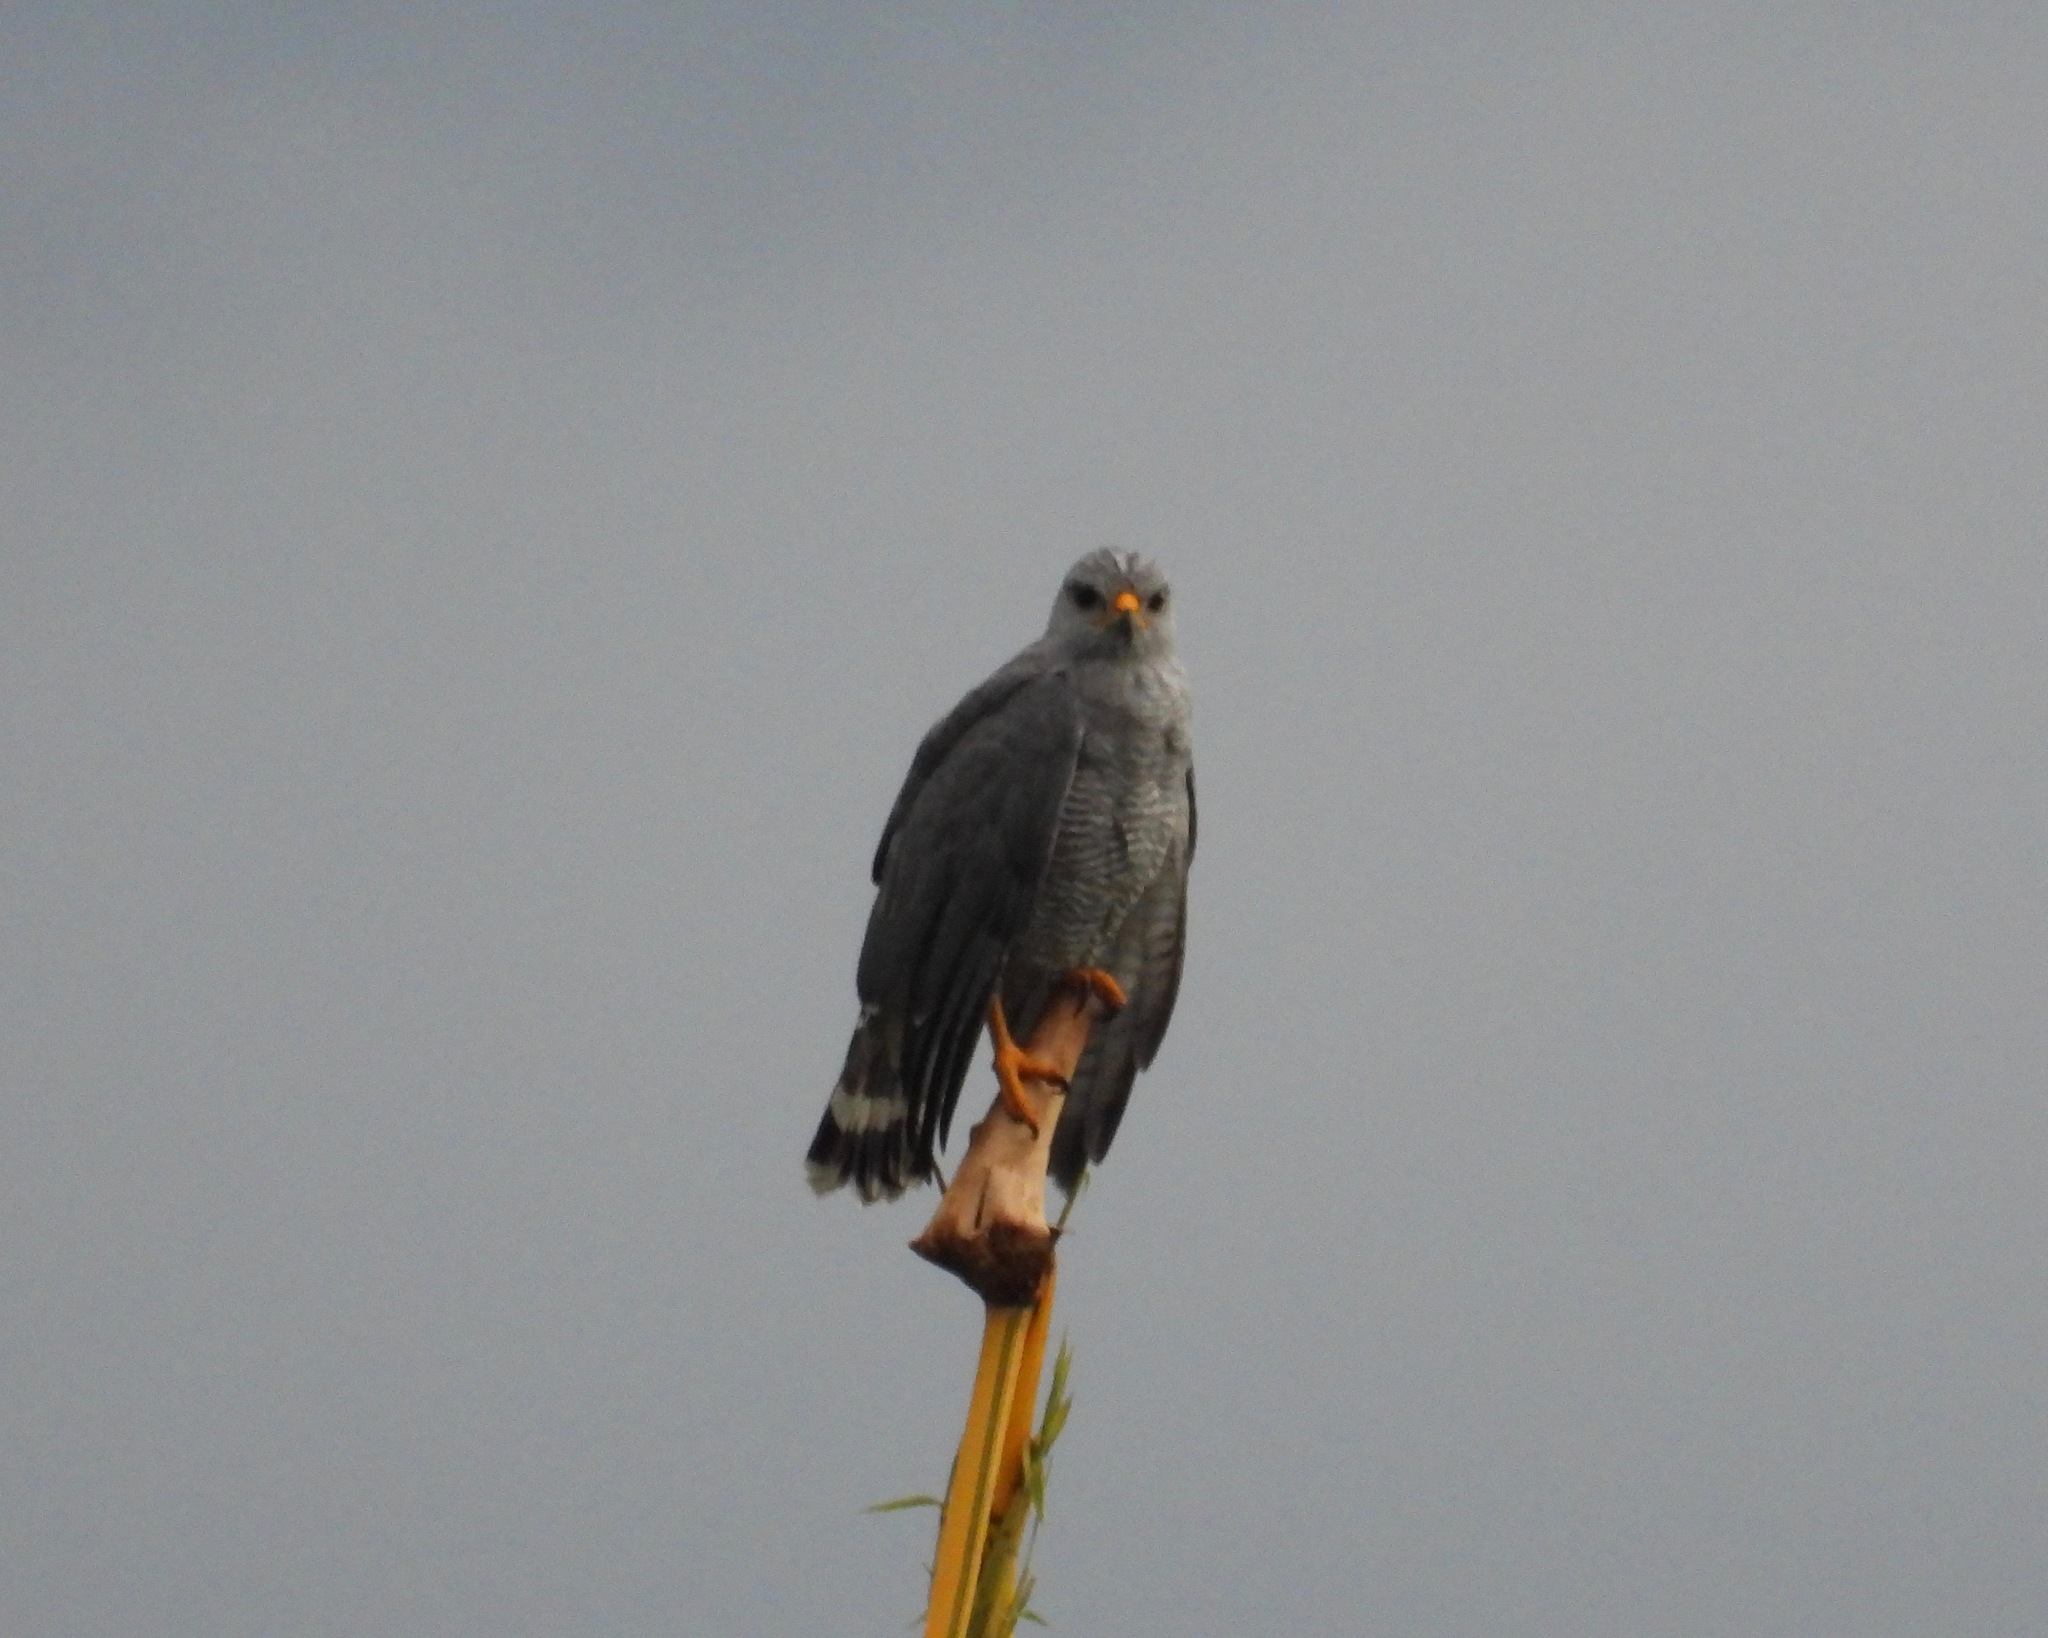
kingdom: Animalia
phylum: Chordata
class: Aves
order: Accipitriformes
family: Accipitridae
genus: Buteo
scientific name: Buteo nitidus
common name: Grey-lined hawk
